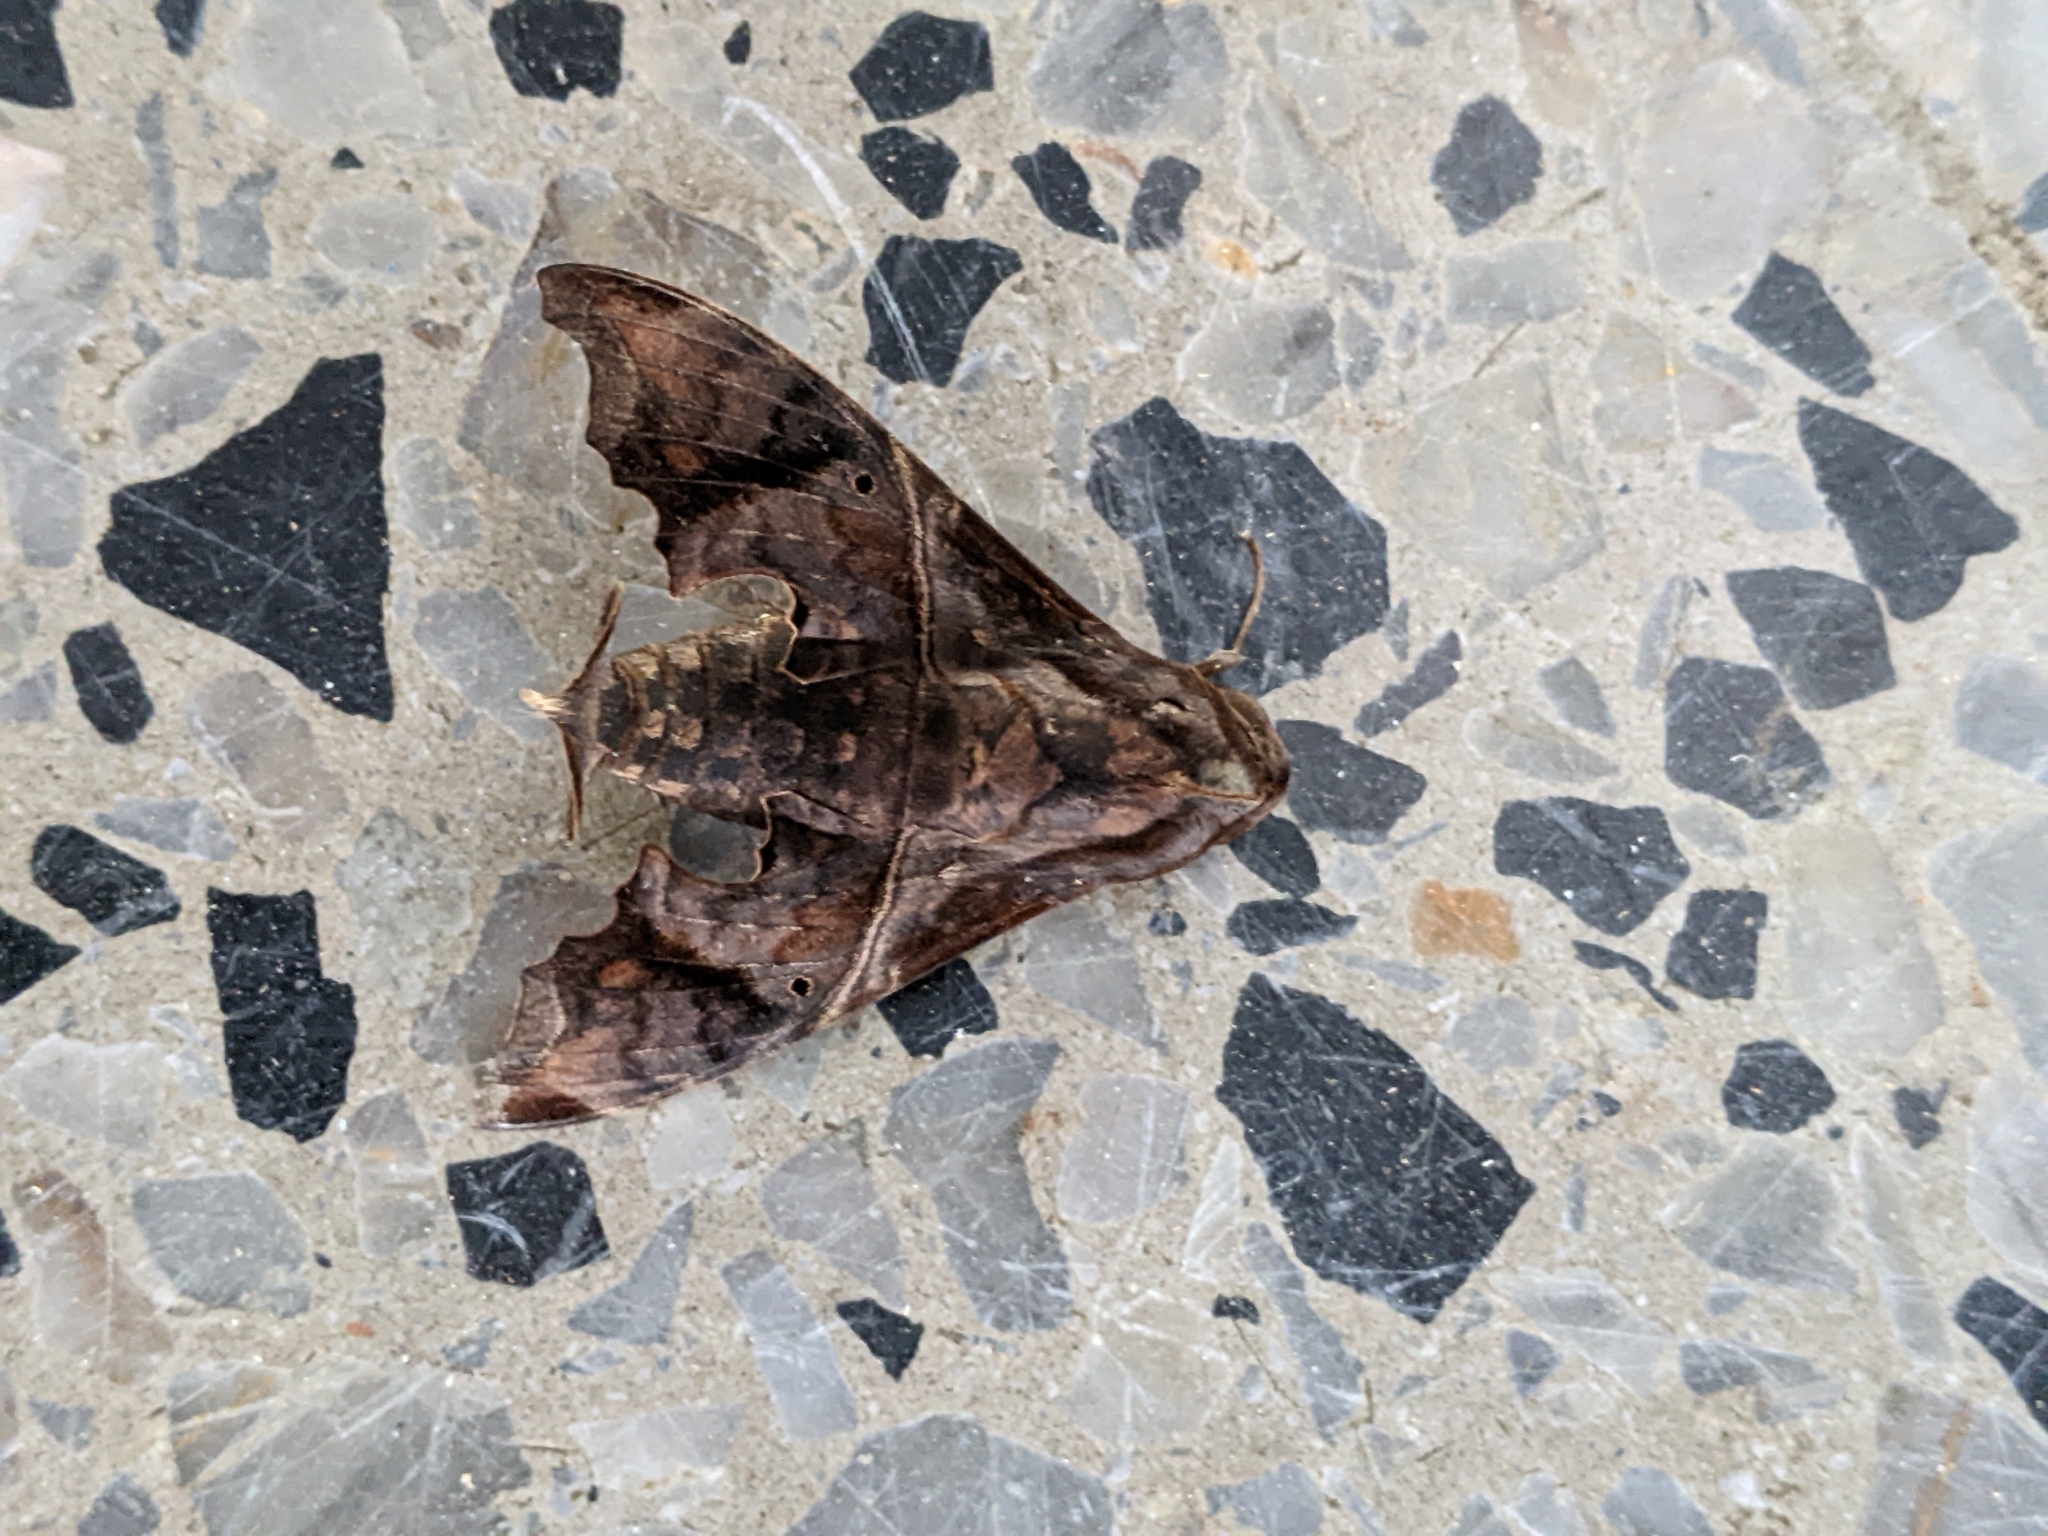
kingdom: Animalia
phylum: Arthropoda
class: Insecta
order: Lepidoptera
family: Sphingidae
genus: Enyo
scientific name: Enyo lugubris
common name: Mournful sphinx
